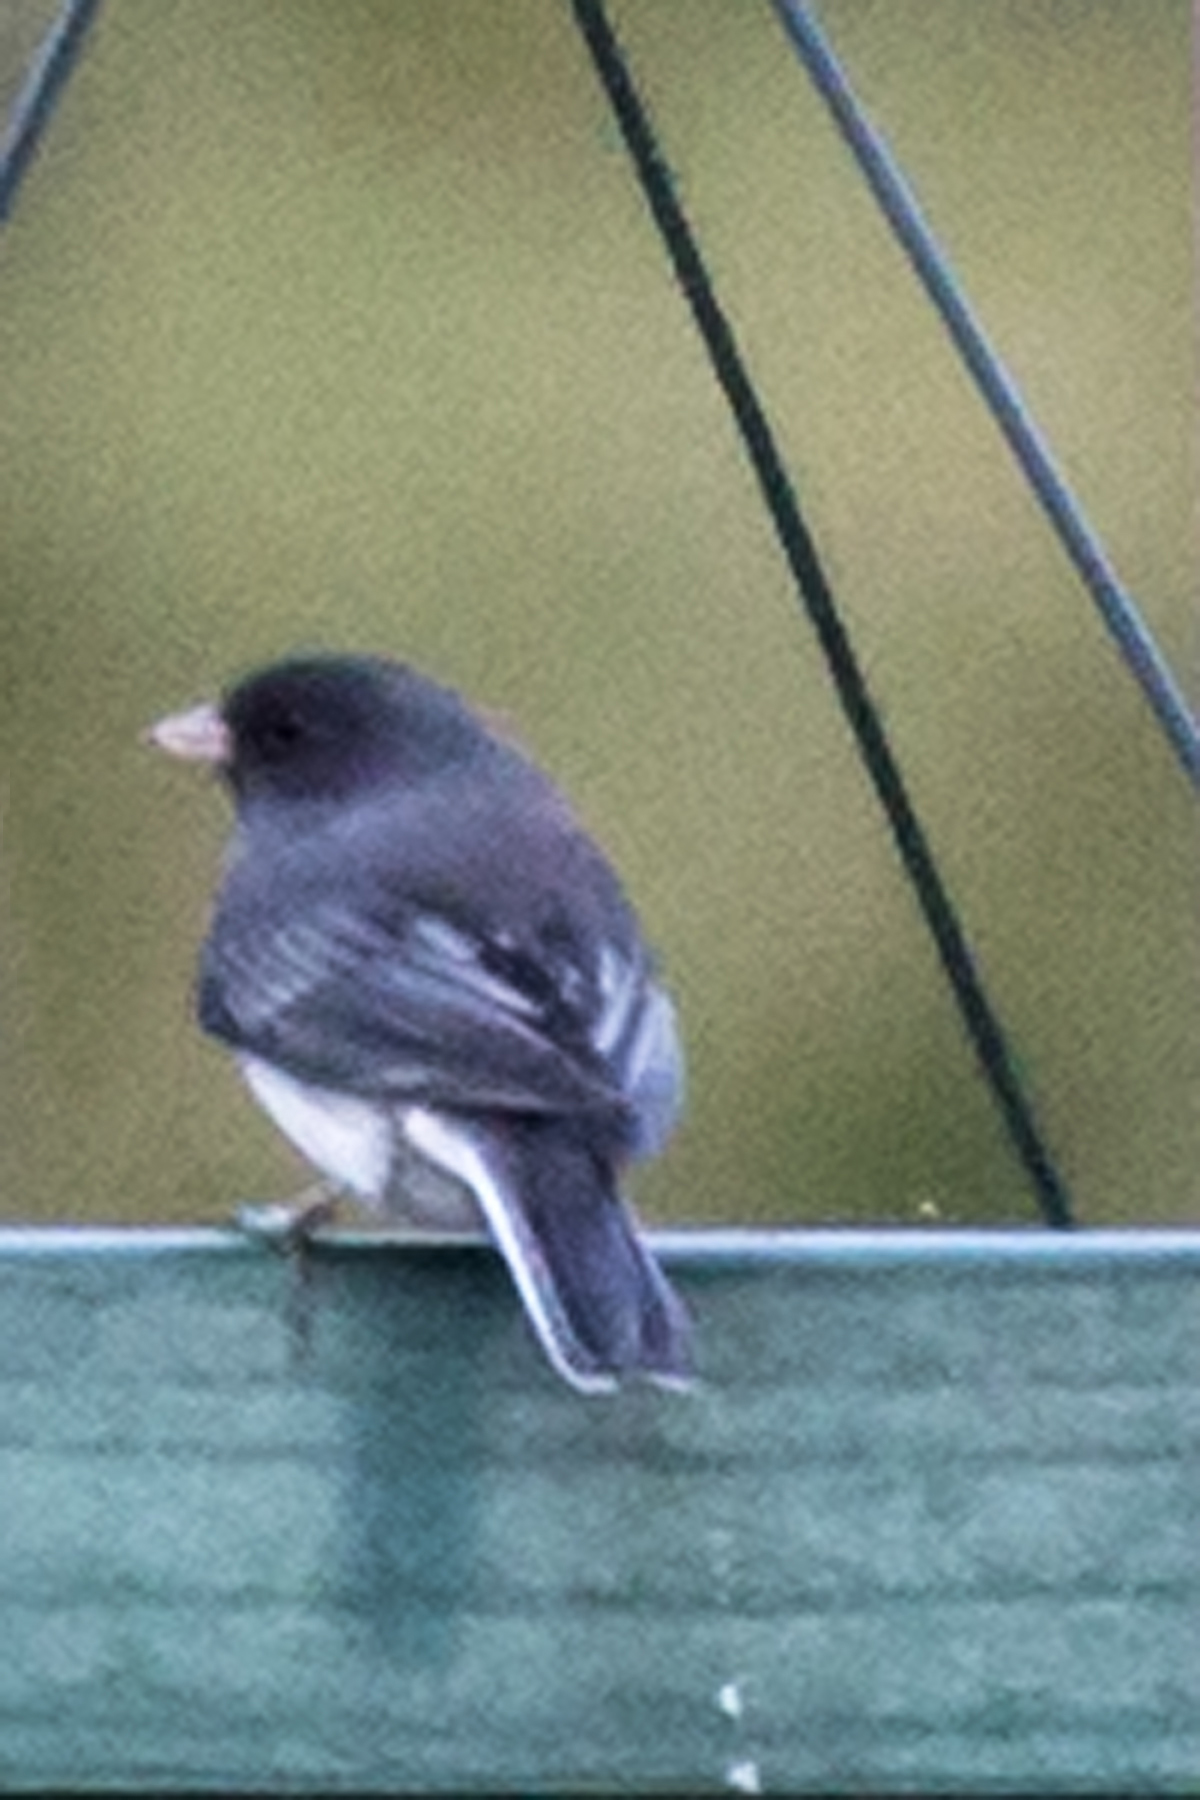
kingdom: Animalia
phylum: Chordata
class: Aves
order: Passeriformes
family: Passerellidae
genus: Junco
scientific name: Junco hyemalis
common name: Dark-eyed junco
